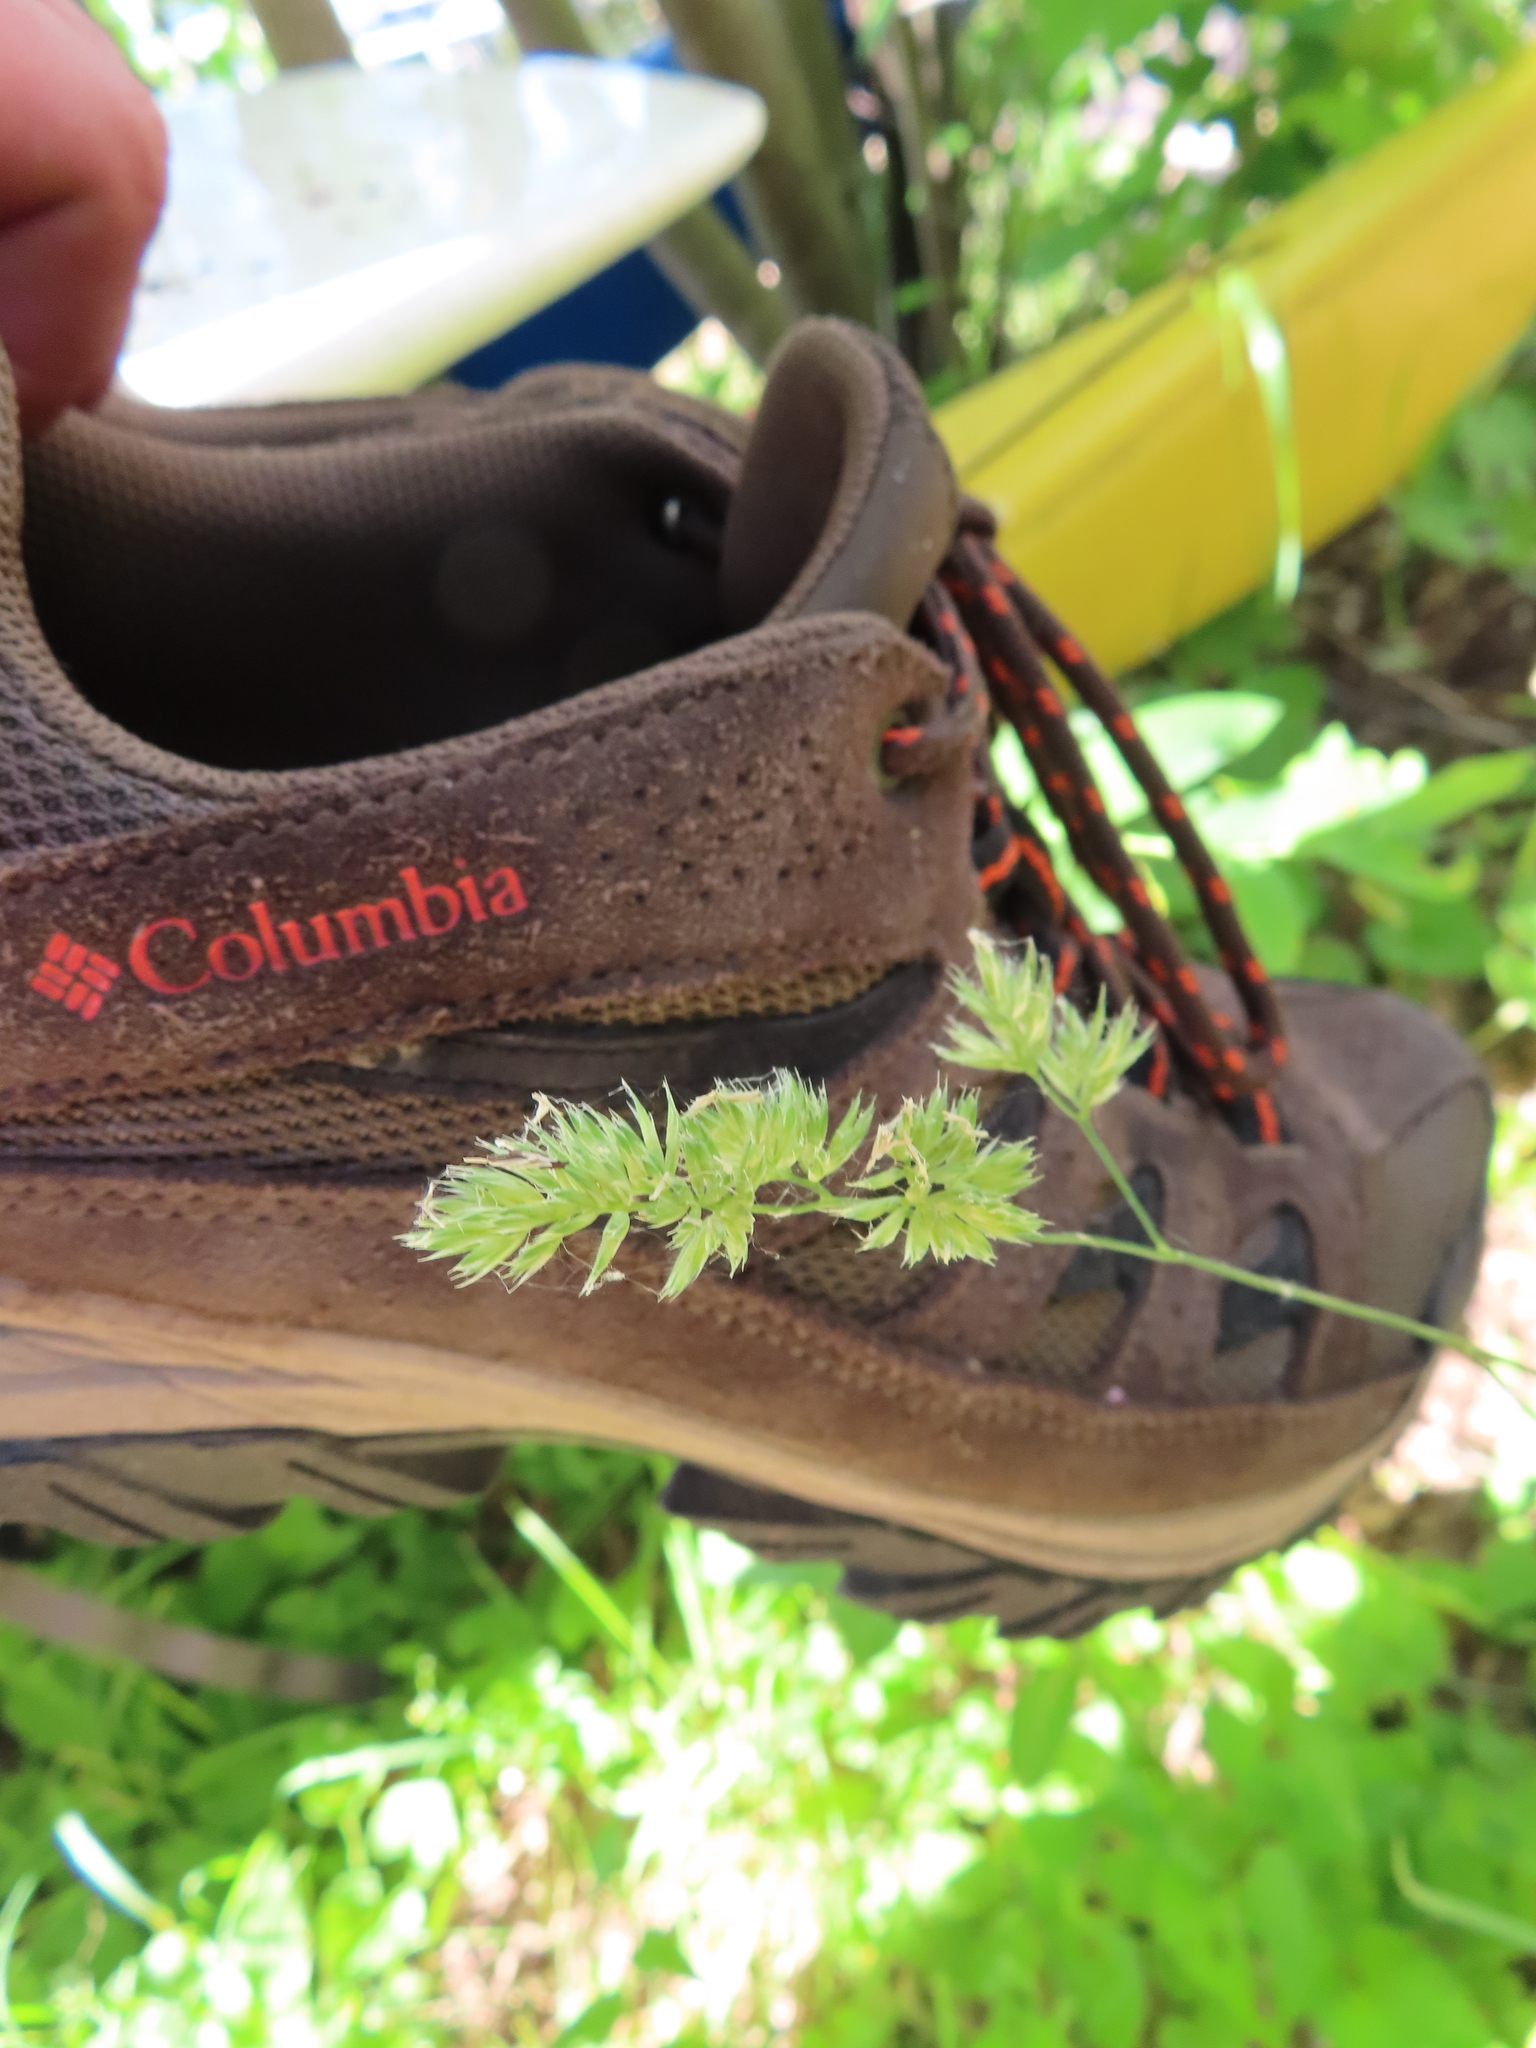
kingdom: Plantae
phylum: Tracheophyta
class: Liliopsida
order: Poales
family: Poaceae
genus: Dactylis
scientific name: Dactylis glomerata
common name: Orchardgrass
